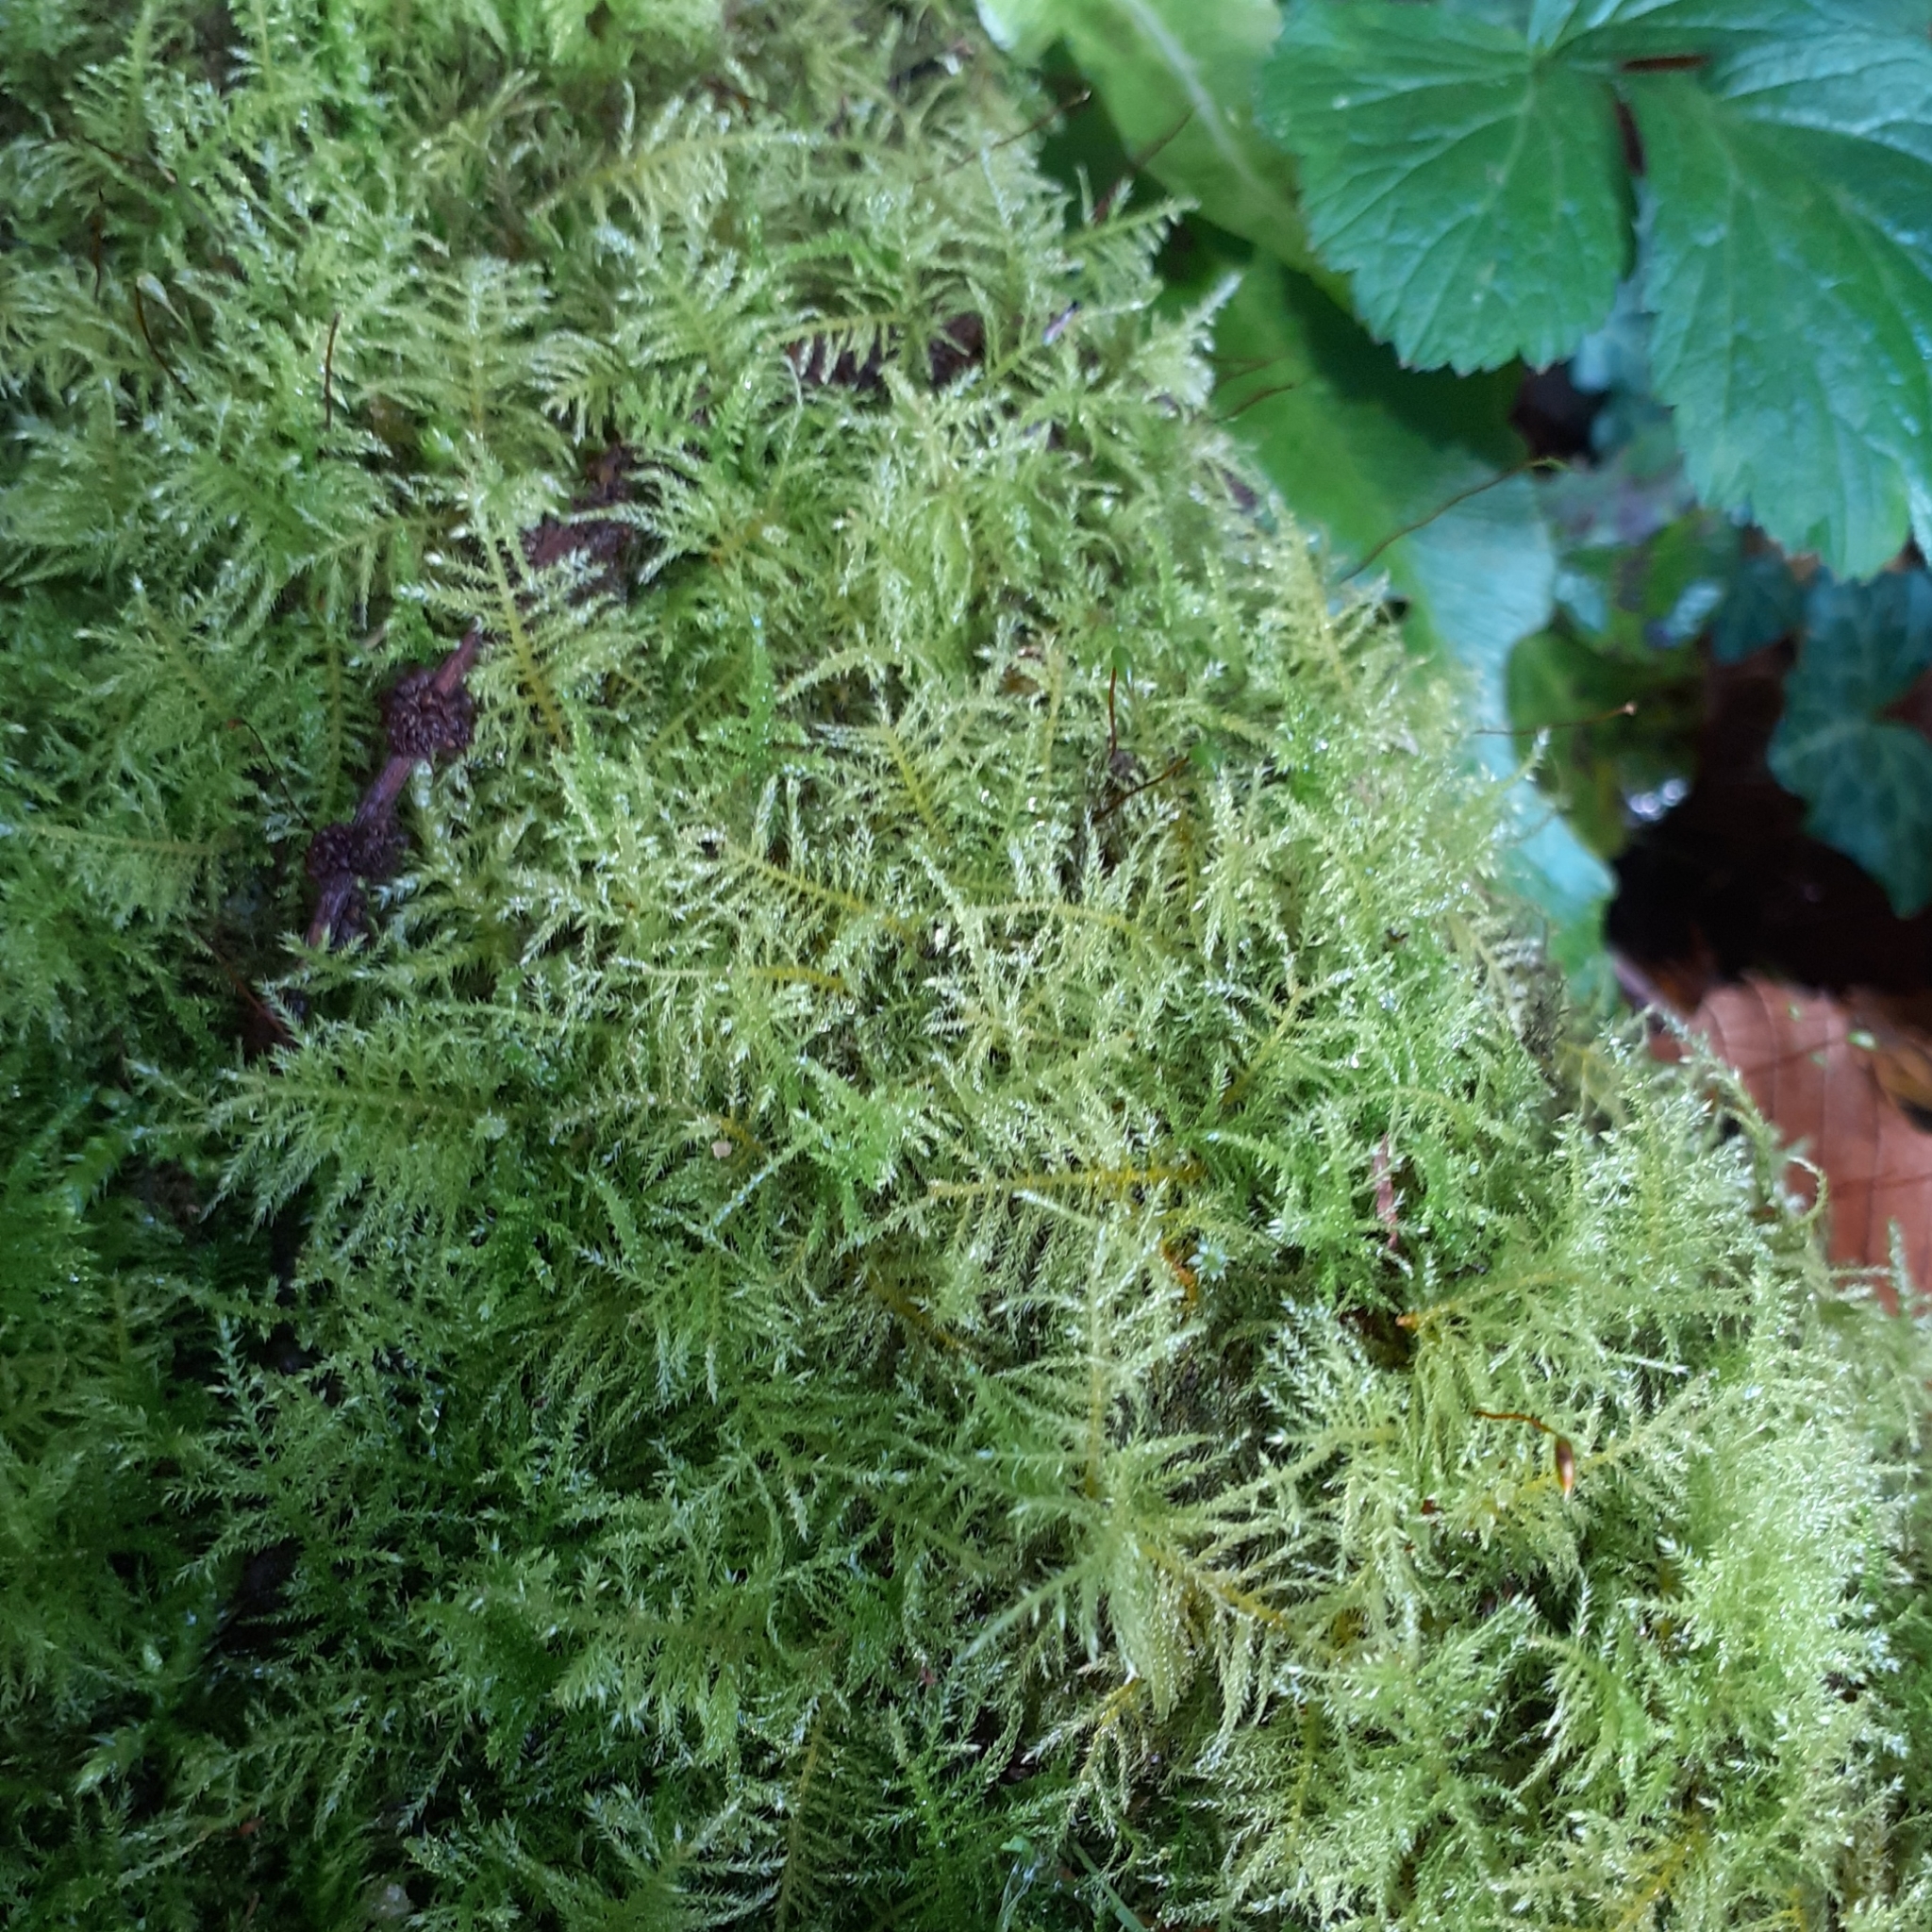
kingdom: Plantae
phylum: Bryophyta
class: Bryopsida
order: Hypnales
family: Brachytheciaceae
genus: Kindbergia
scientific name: Kindbergia praelonga
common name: Slender beaked moss
